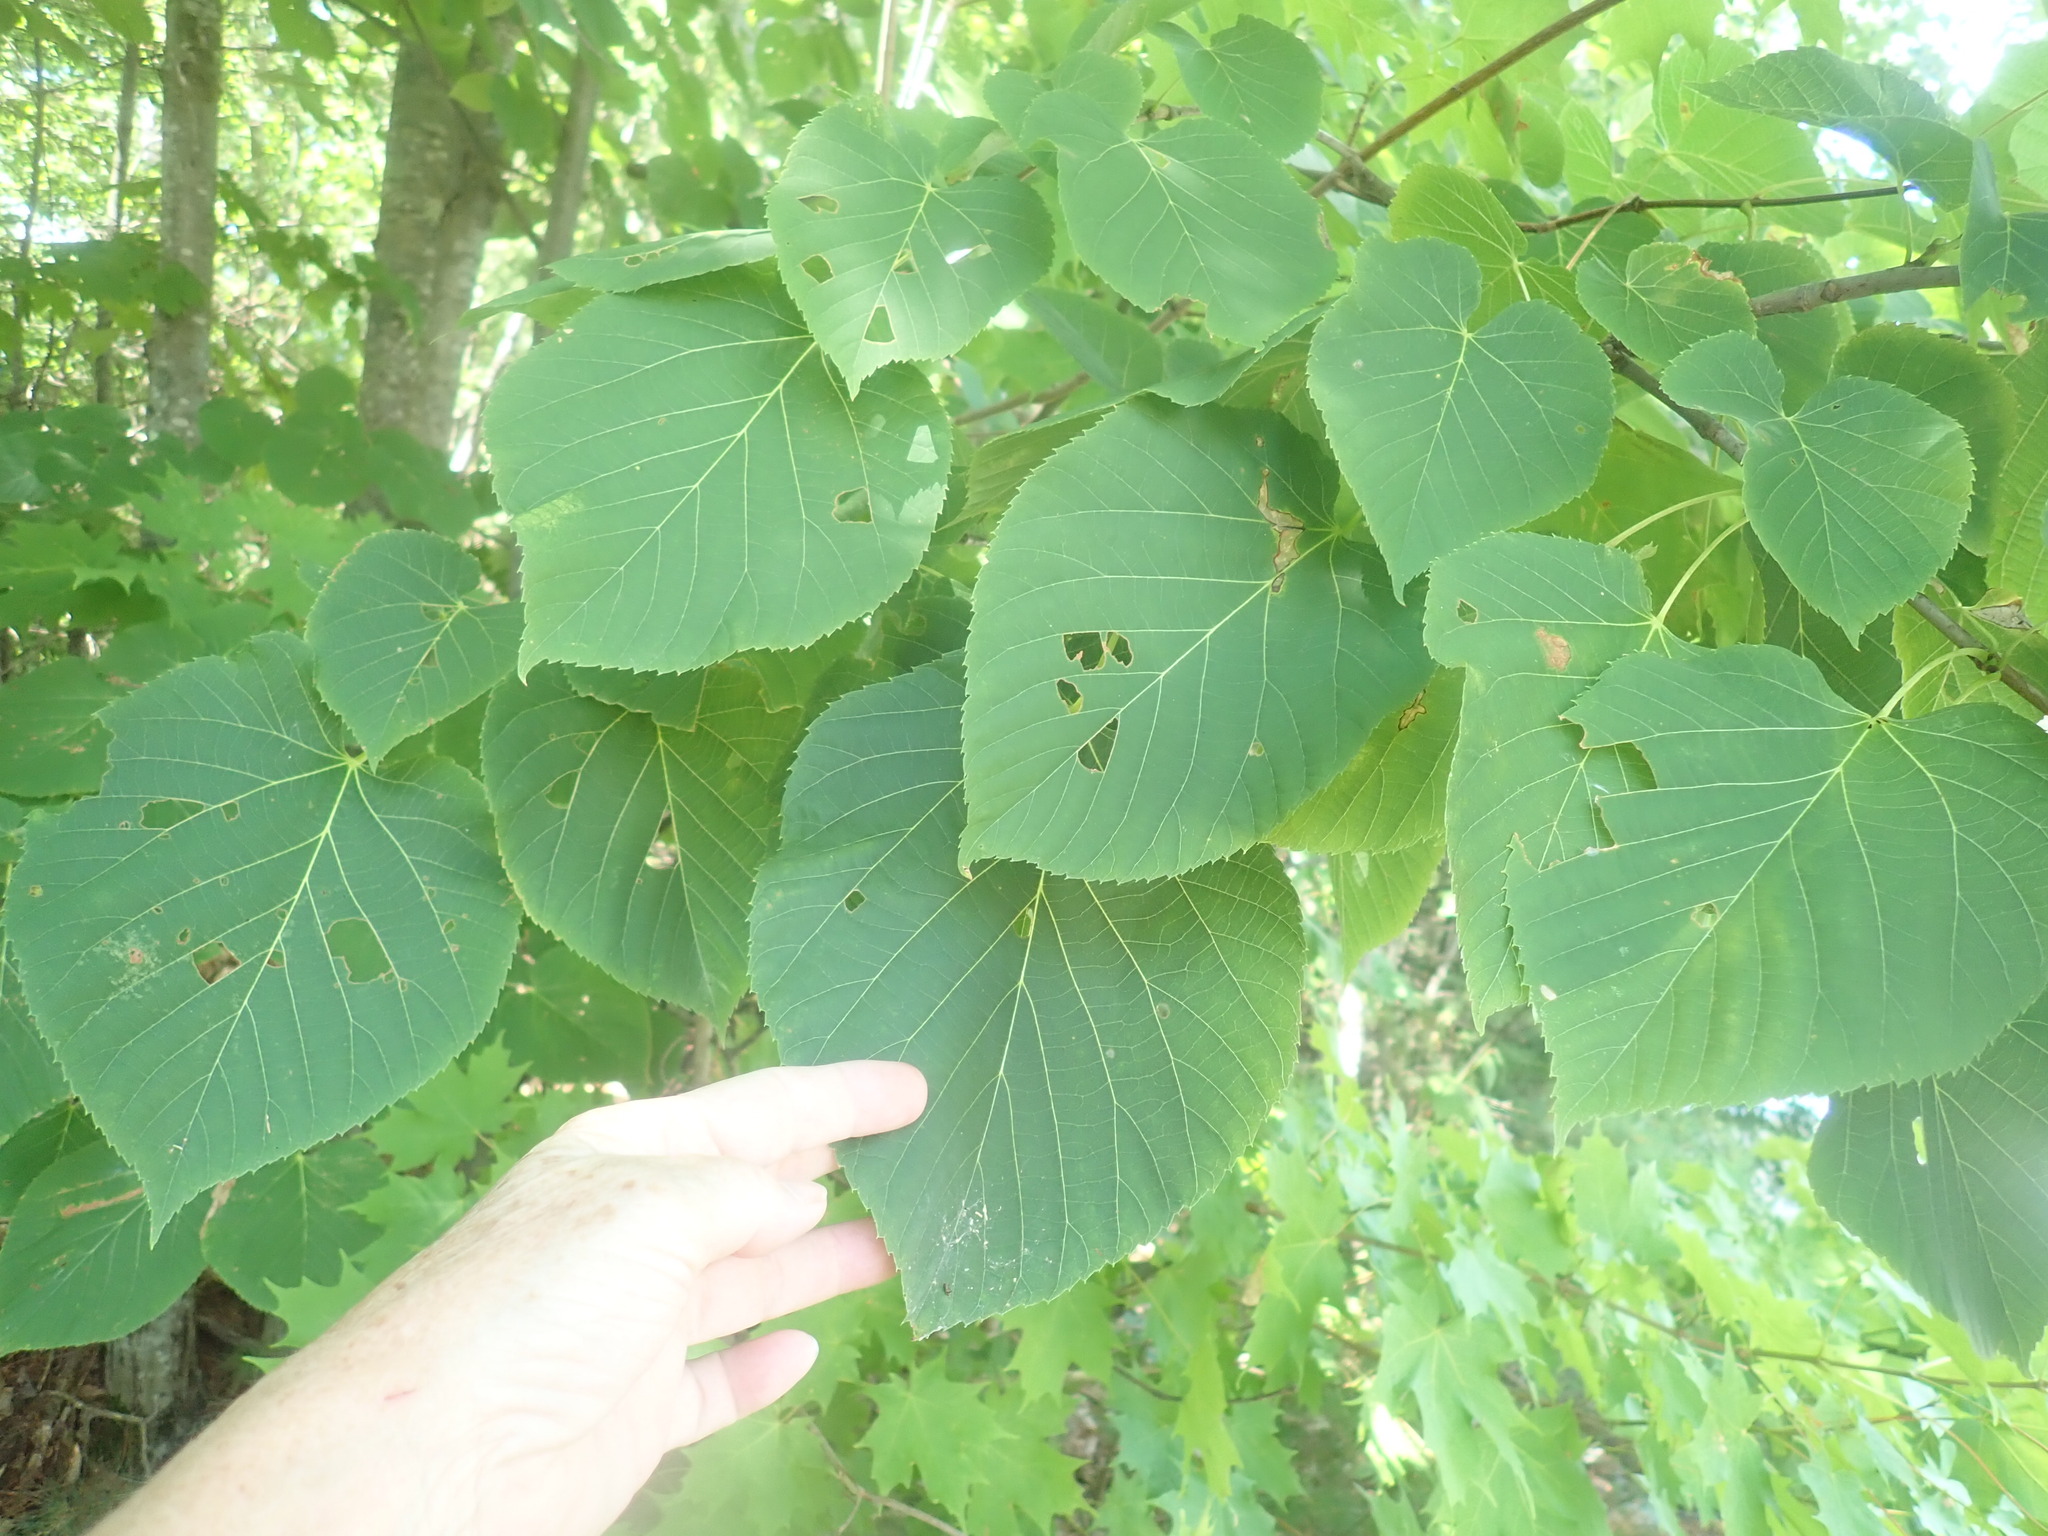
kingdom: Plantae
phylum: Tracheophyta
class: Magnoliopsida
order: Malvales
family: Malvaceae
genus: Tilia
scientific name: Tilia americana
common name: Basswood
